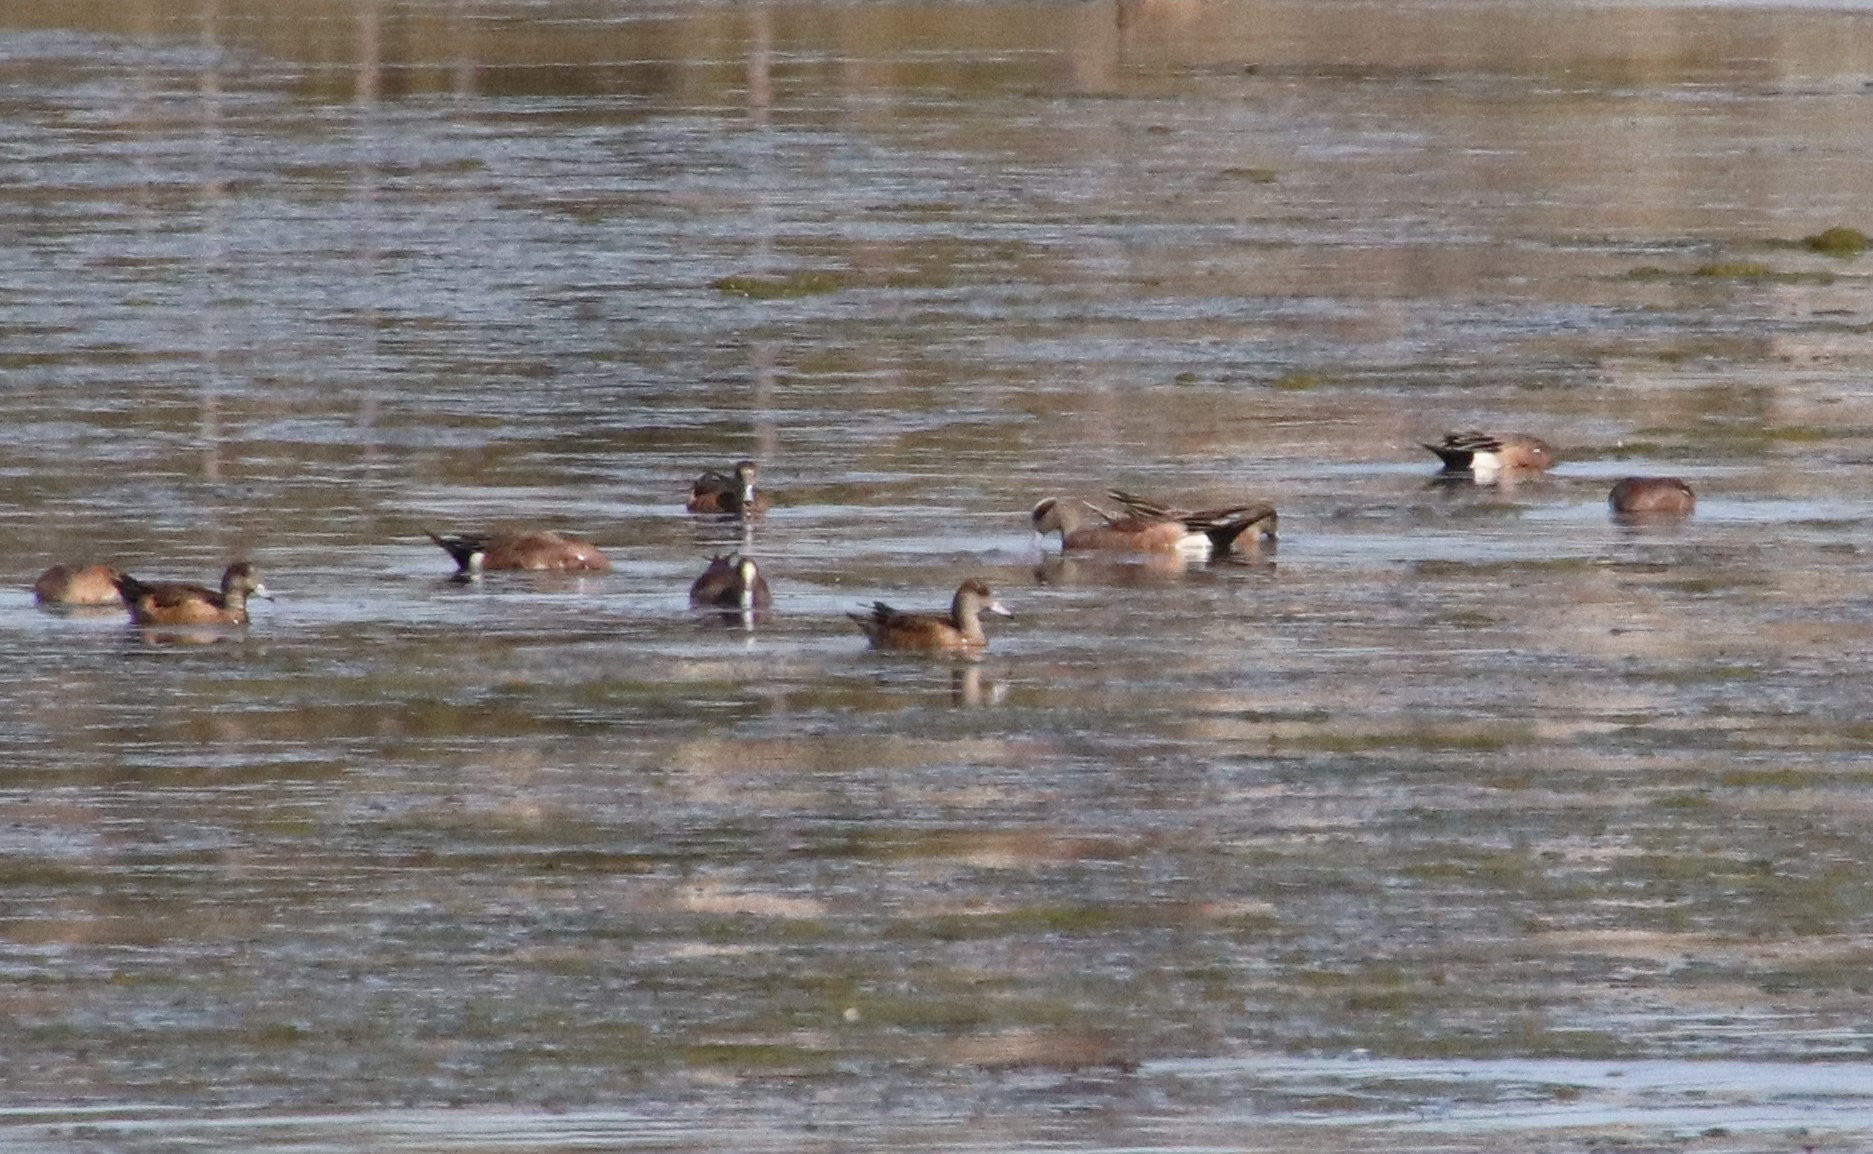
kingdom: Animalia
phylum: Chordata
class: Aves
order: Anseriformes
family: Anatidae
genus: Mareca
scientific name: Mareca americana
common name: American wigeon
